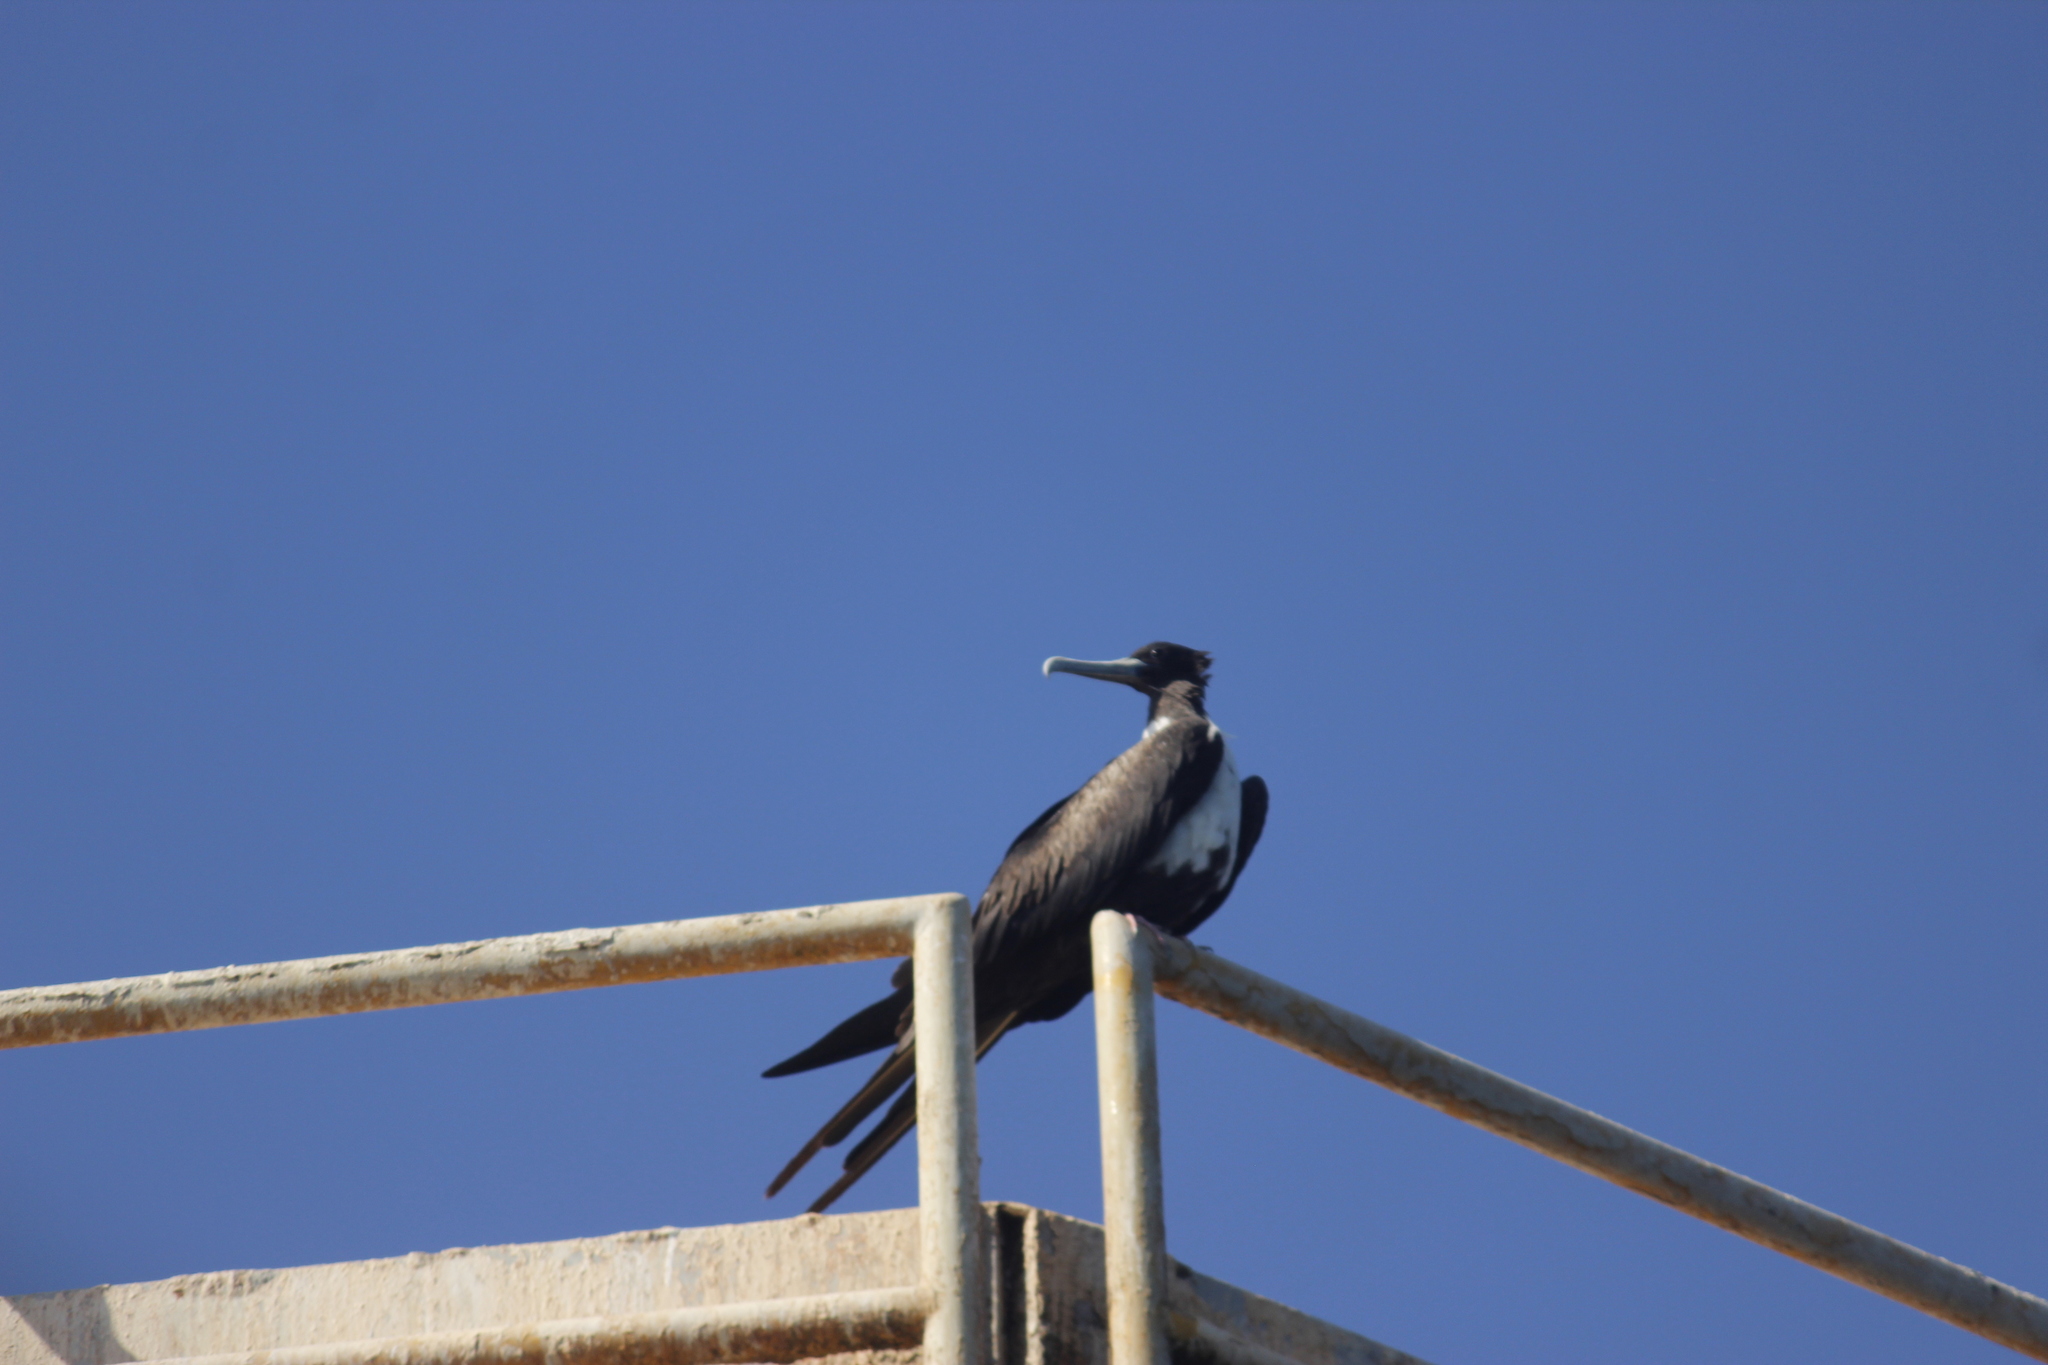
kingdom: Animalia
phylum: Chordata
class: Aves
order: Suliformes
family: Fregatidae
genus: Fregata
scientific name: Fregata magnificens
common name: Magnificent frigatebird
